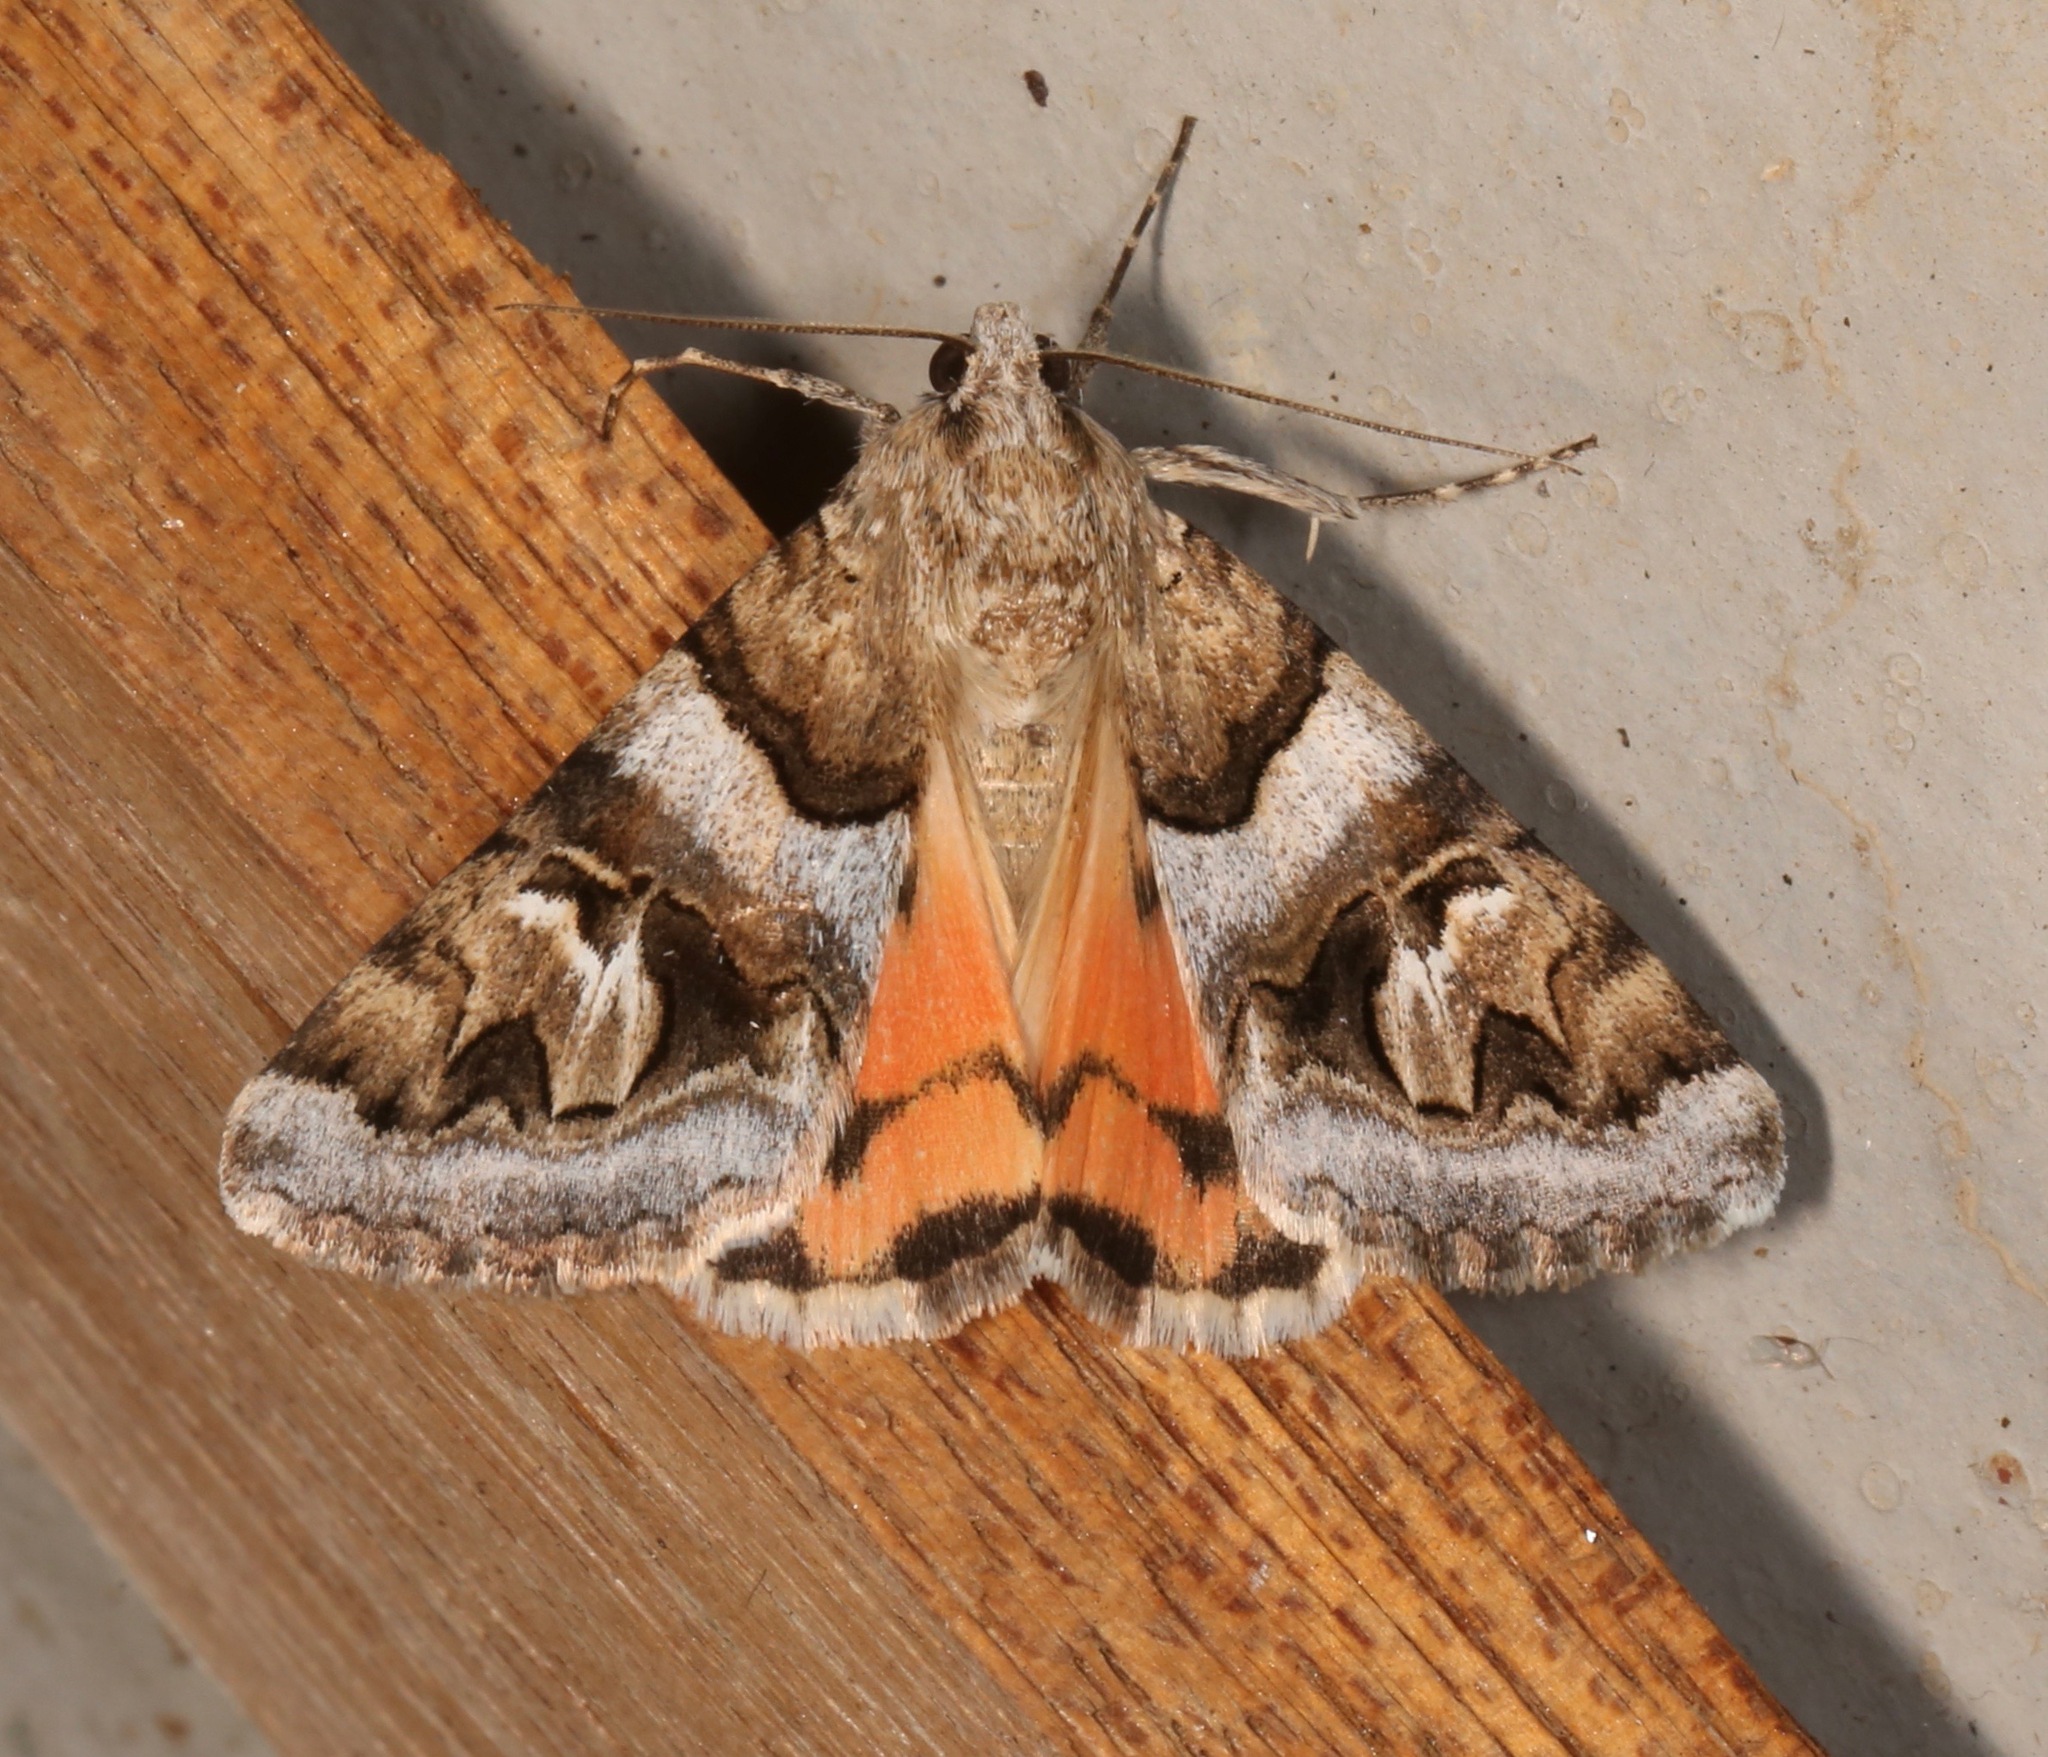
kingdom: Animalia
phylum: Arthropoda
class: Insecta
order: Lepidoptera
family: Erebidae
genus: Drasteria
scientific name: Drasteria howlandii
